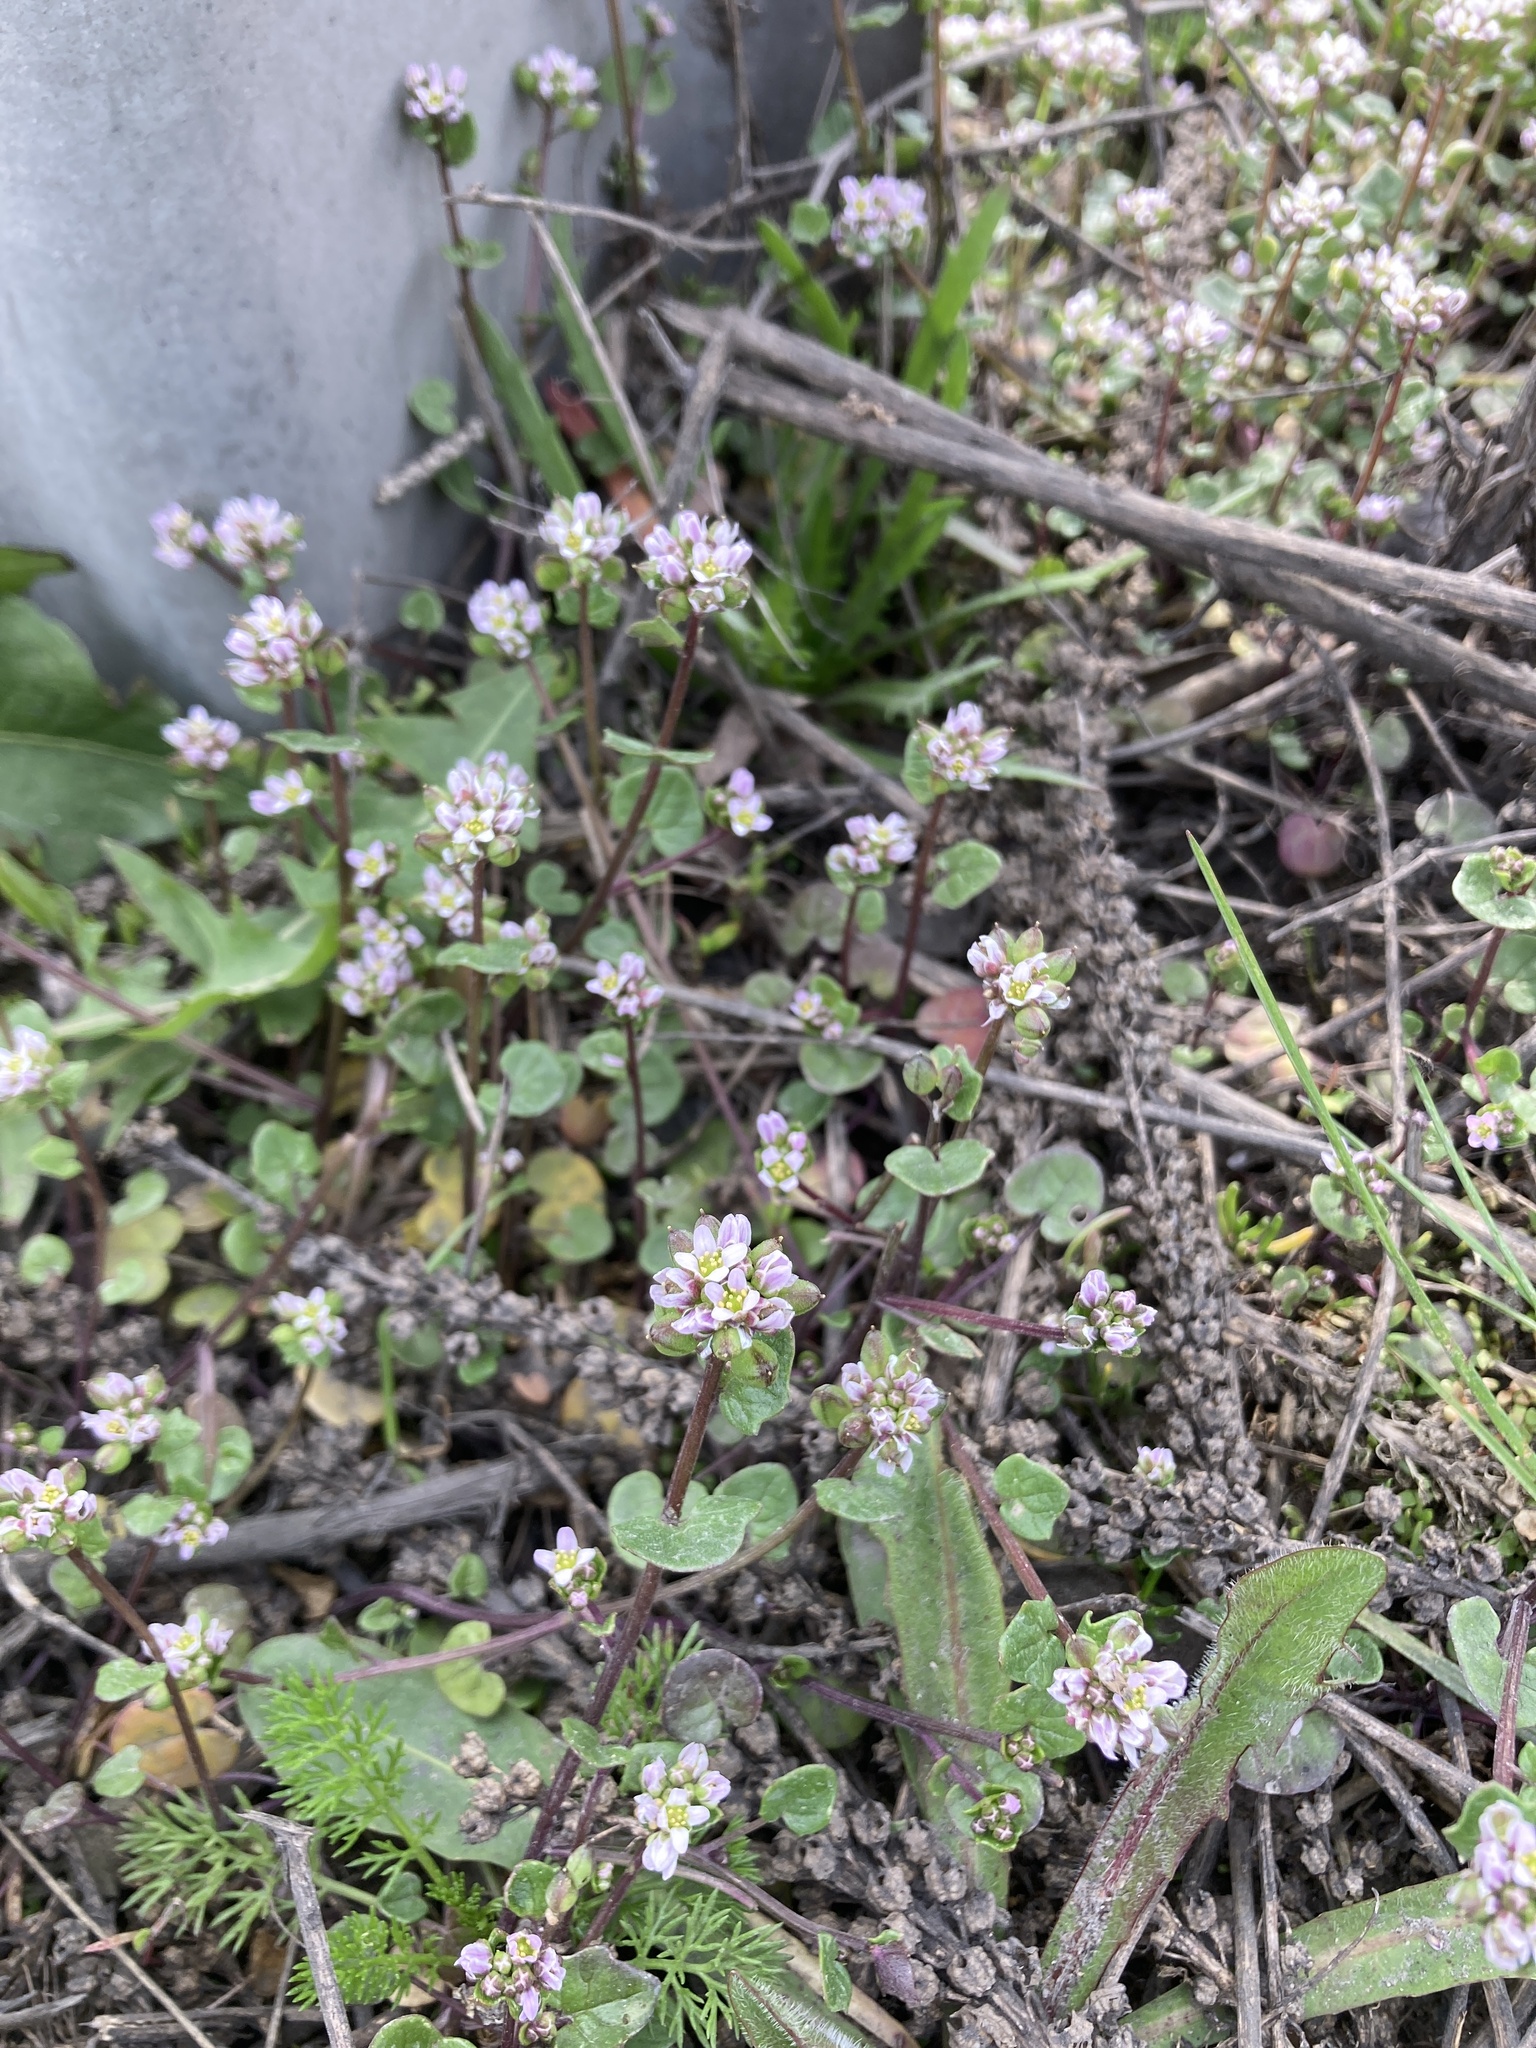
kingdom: Plantae
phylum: Tracheophyta
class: Magnoliopsida
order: Brassicales
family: Brassicaceae
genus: Cochlearia
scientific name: Cochlearia danica
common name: Early scurvygrass
